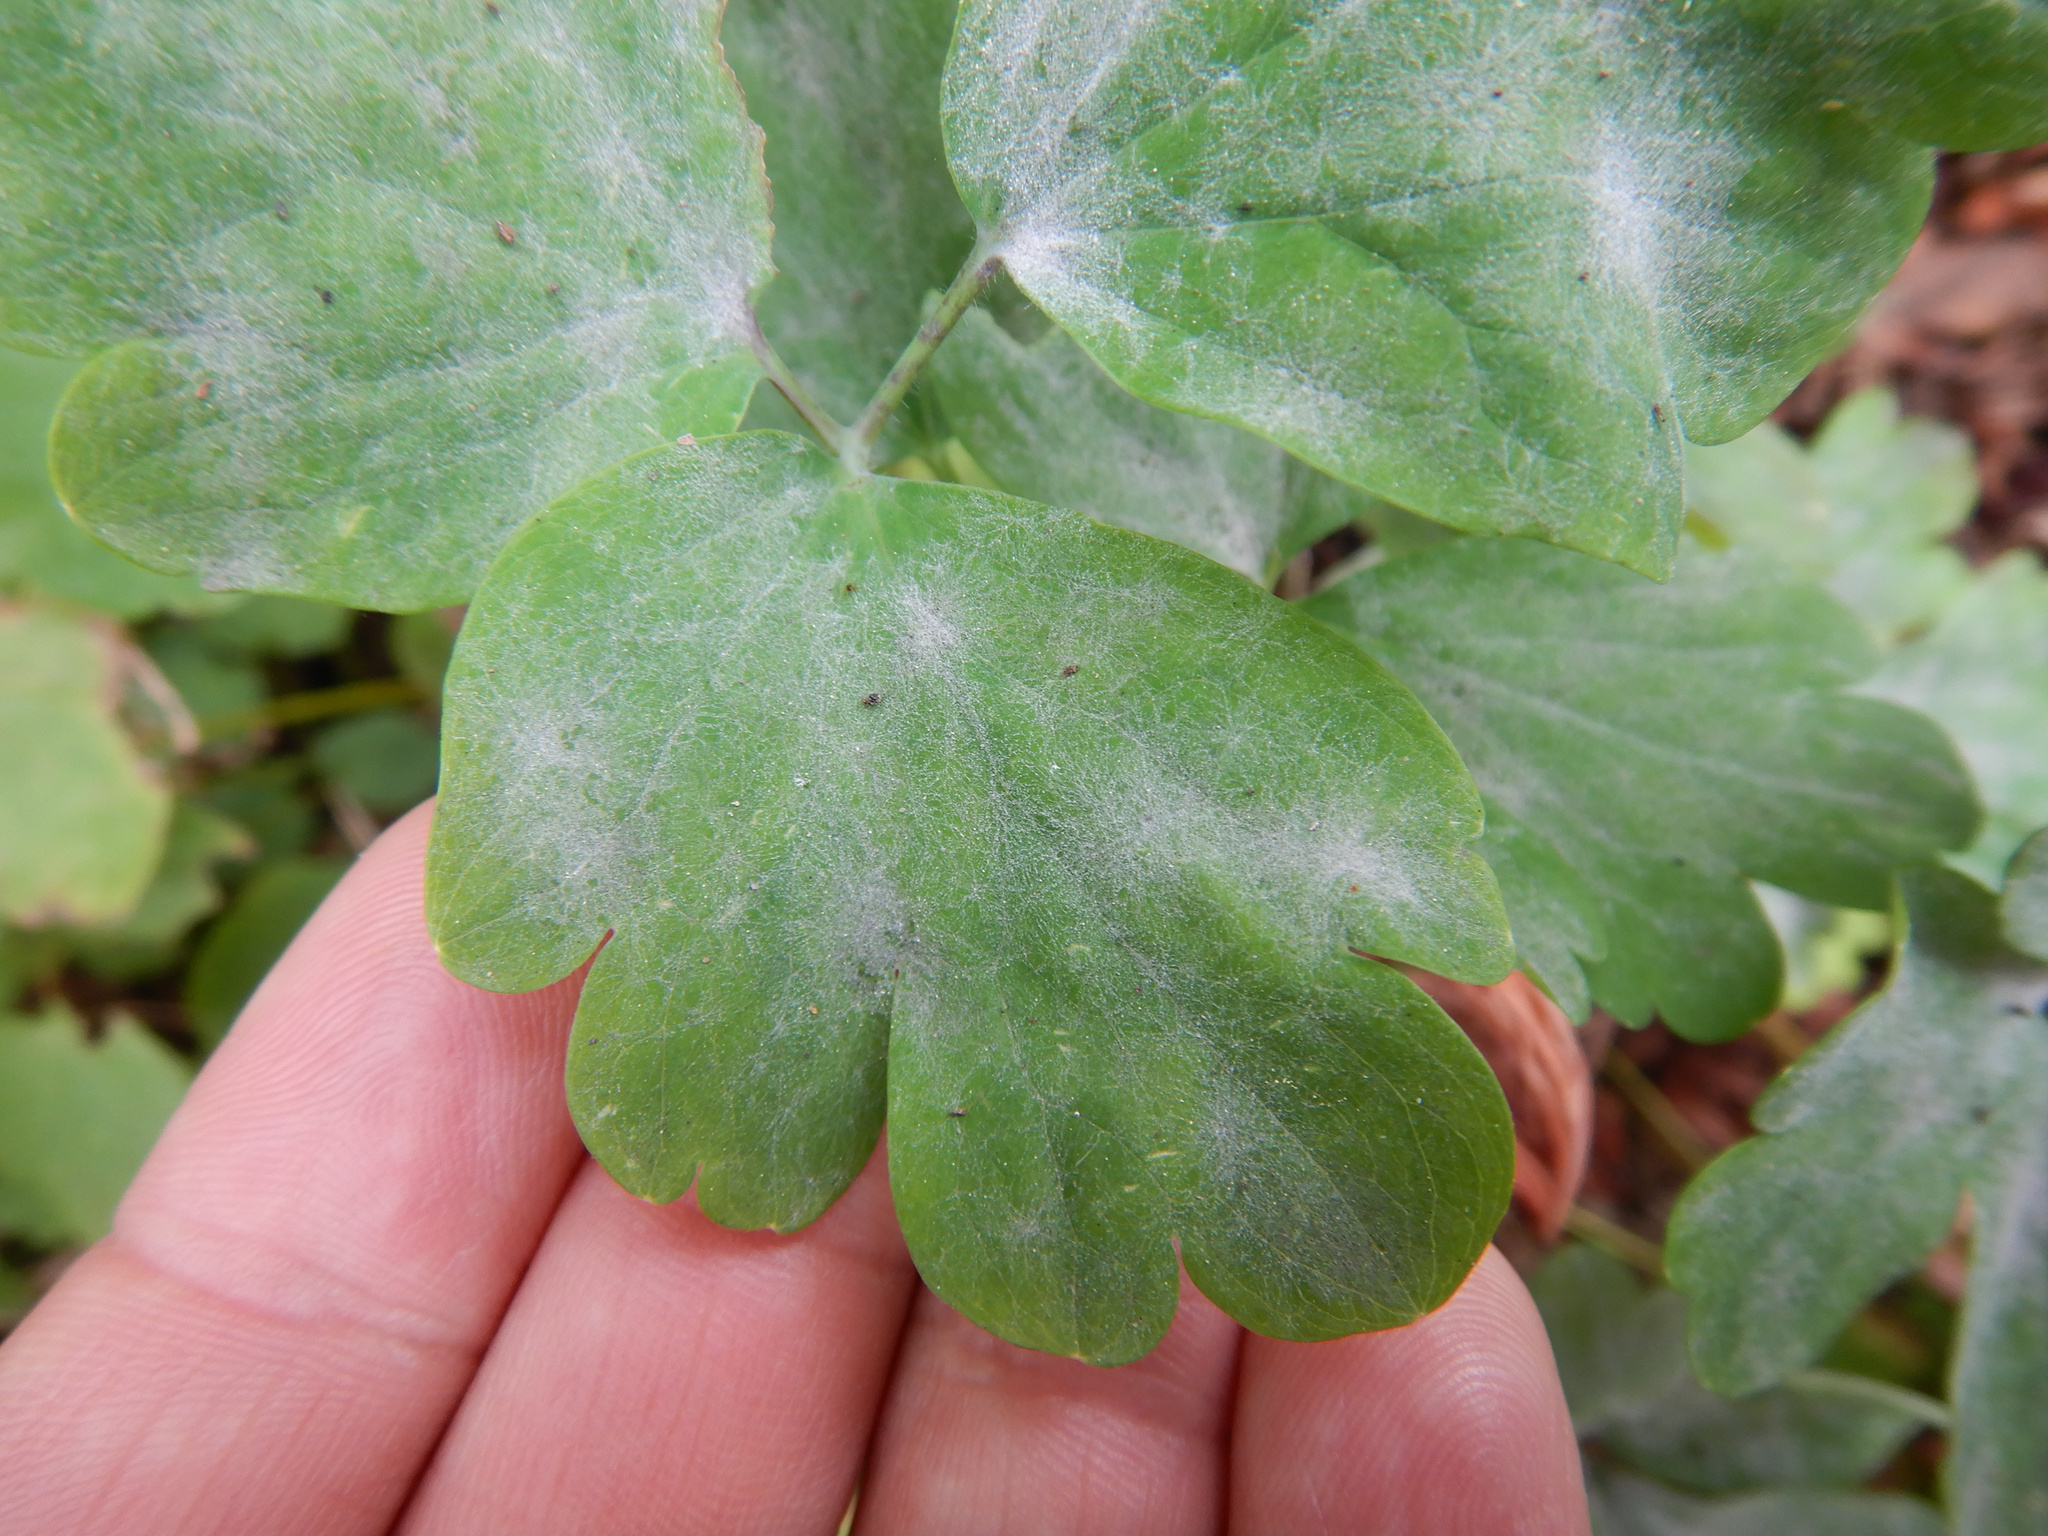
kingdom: Fungi
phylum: Ascomycota
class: Leotiomycetes
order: Helotiales
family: Erysiphaceae
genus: Erysiphe
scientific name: Erysiphe aquilegiae
